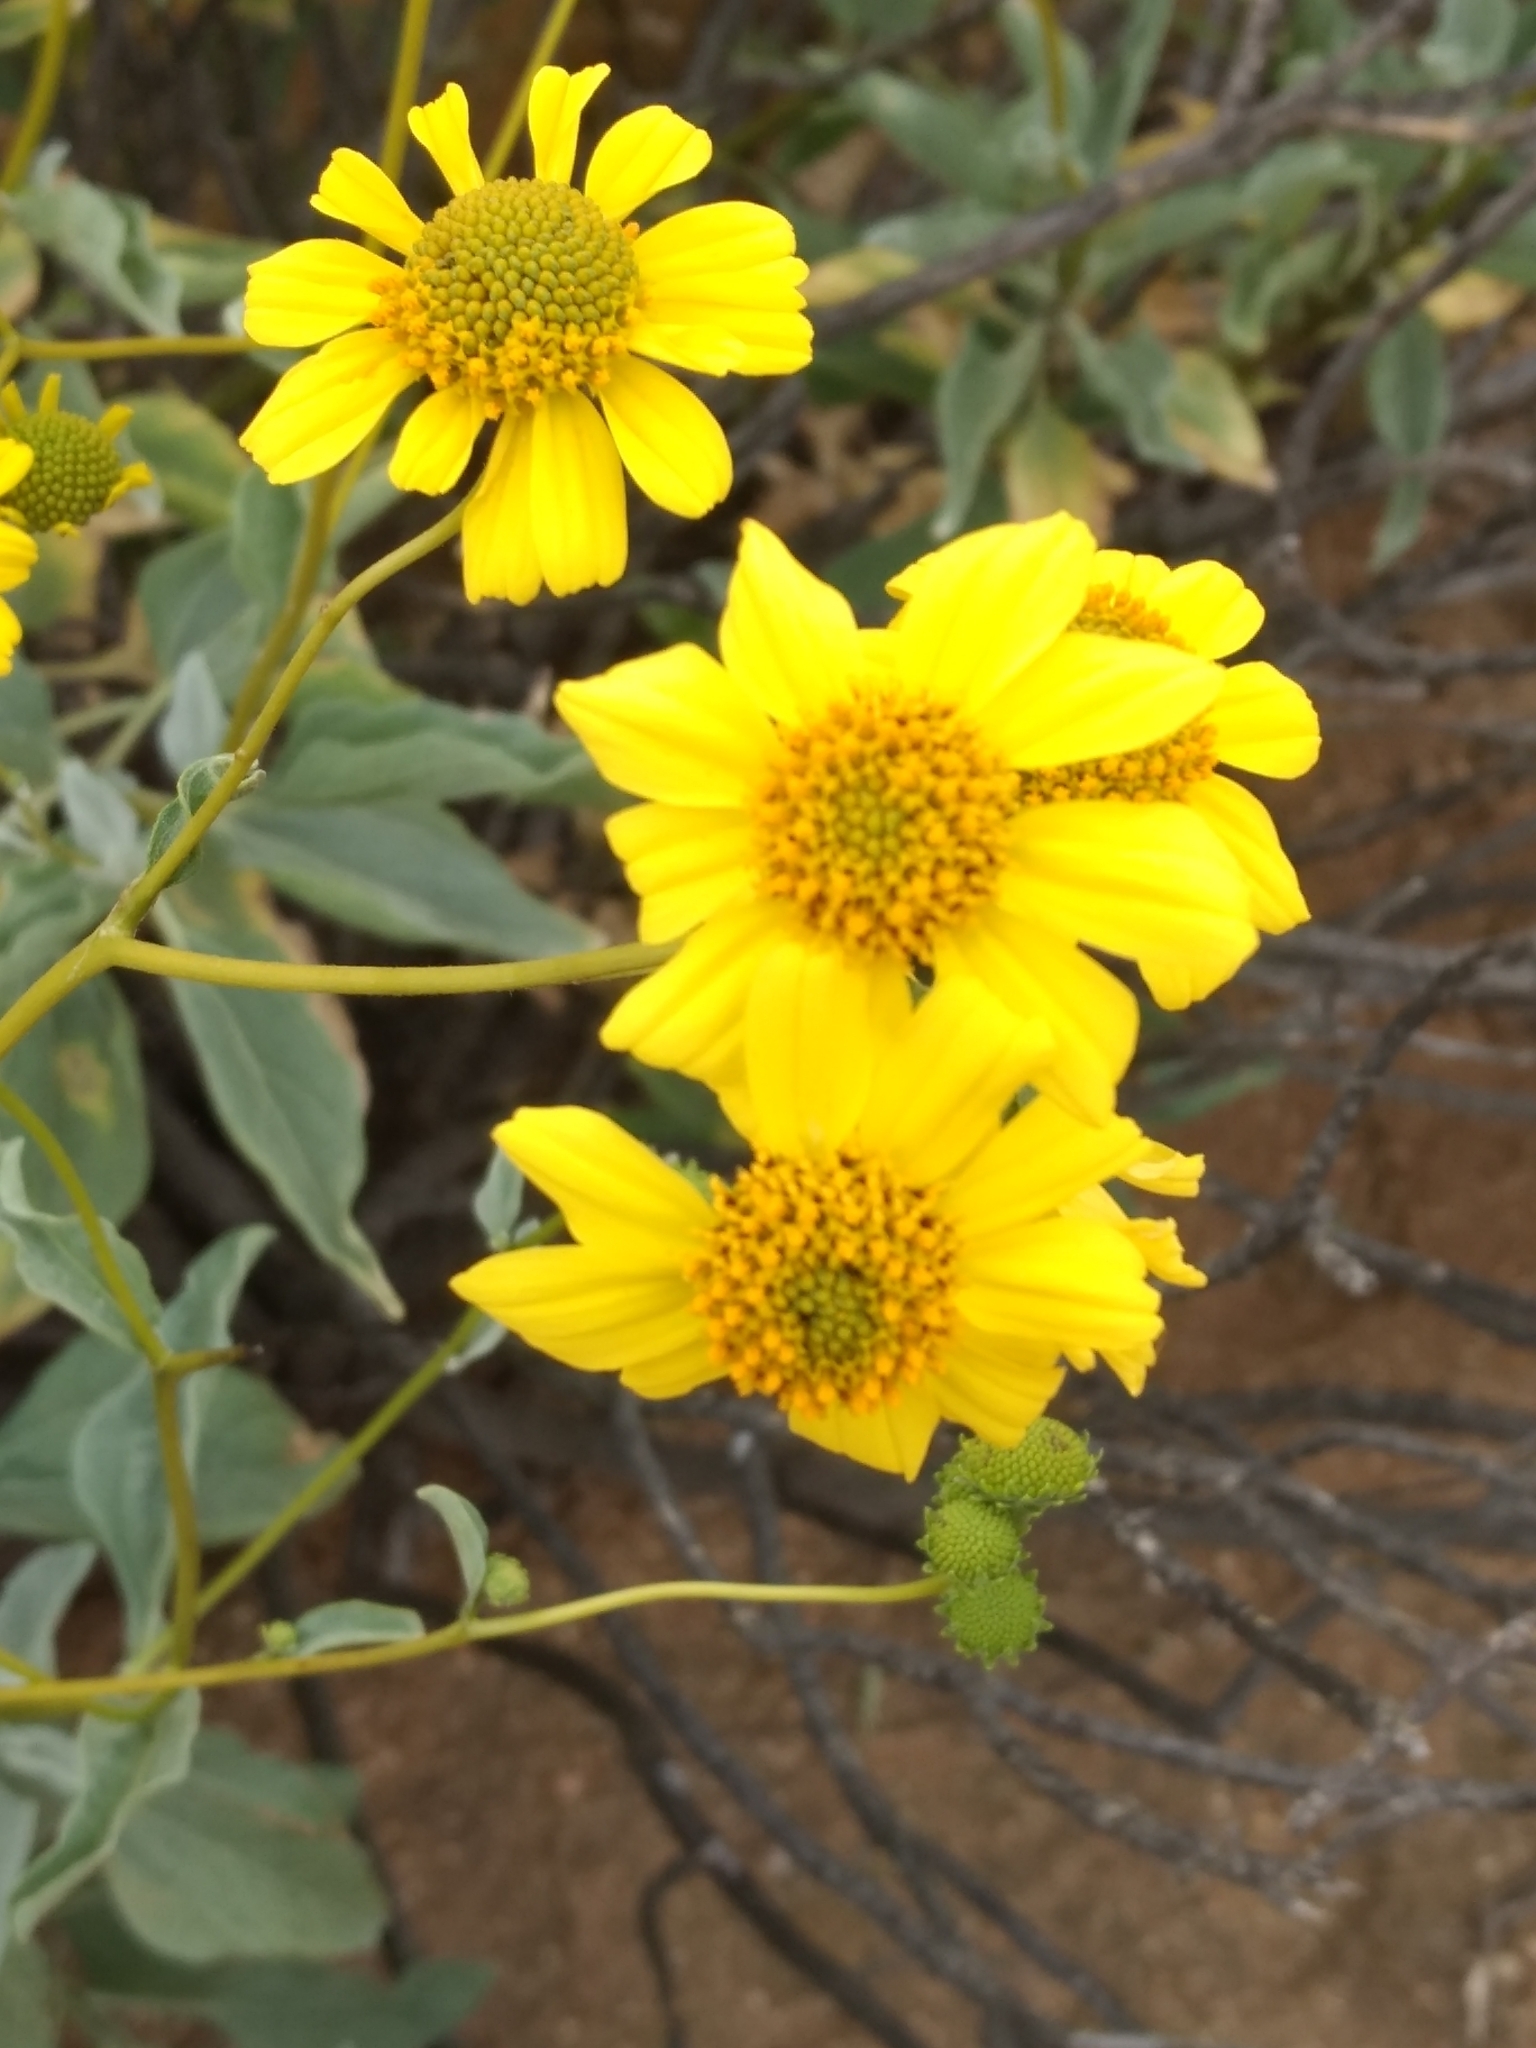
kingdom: Plantae
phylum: Tracheophyta
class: Magnoliopsida
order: Asterales
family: Asteraceae
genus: Encelia
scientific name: Encelia farinosa
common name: Brittlebush
